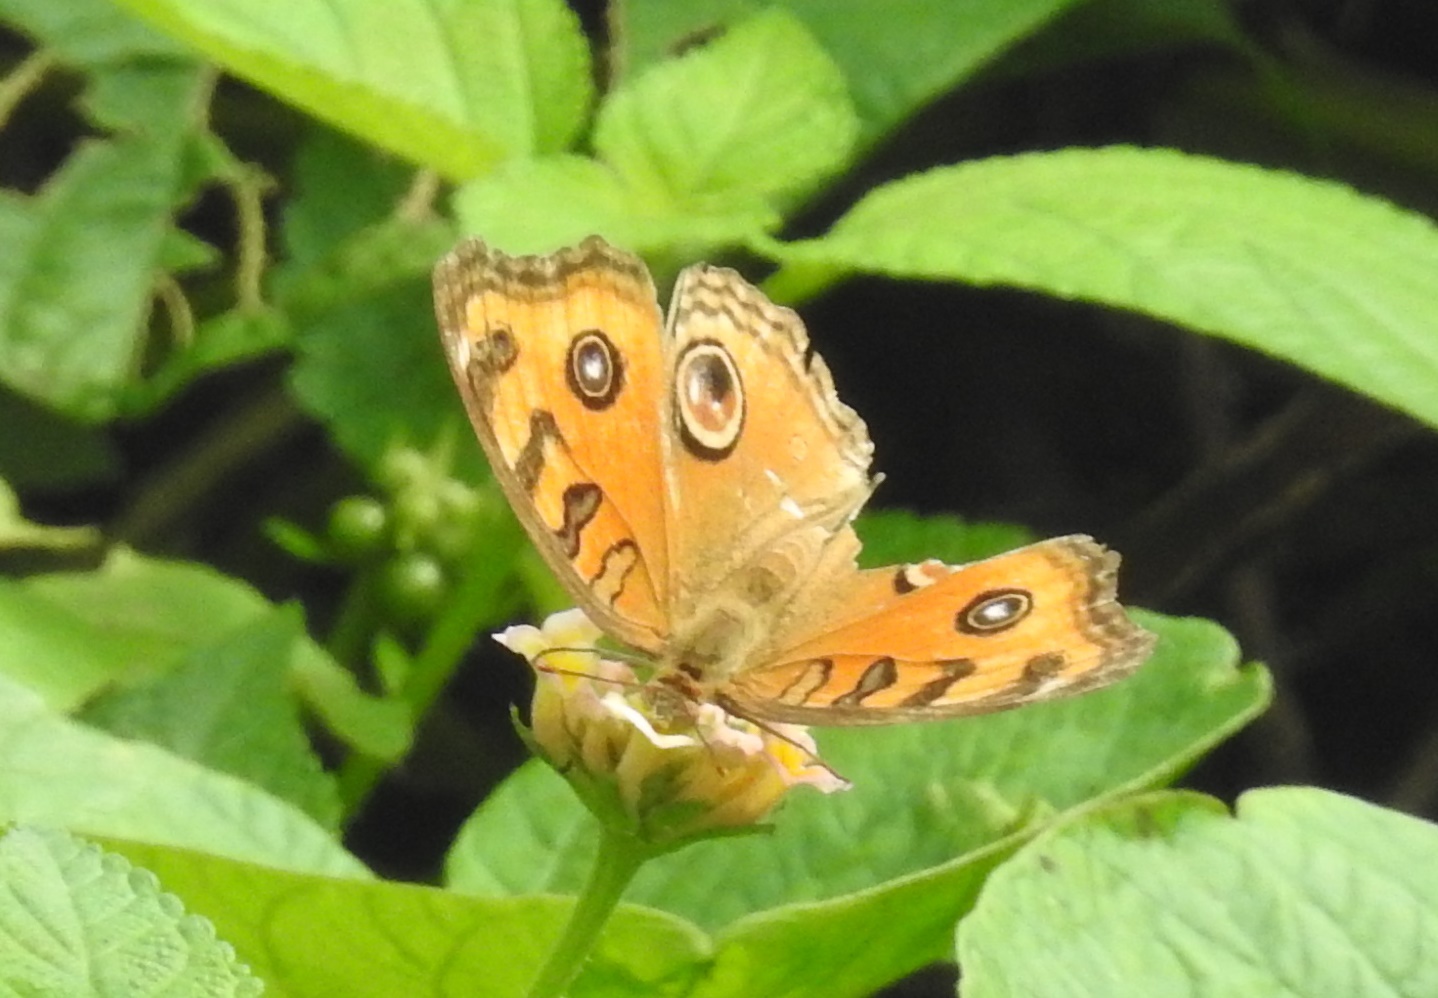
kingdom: Animalia
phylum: Arthropoda
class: Insecta
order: Lepidoptera
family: Nymphalidae
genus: Junonia
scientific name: Junonia almana
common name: Peacock pansy
